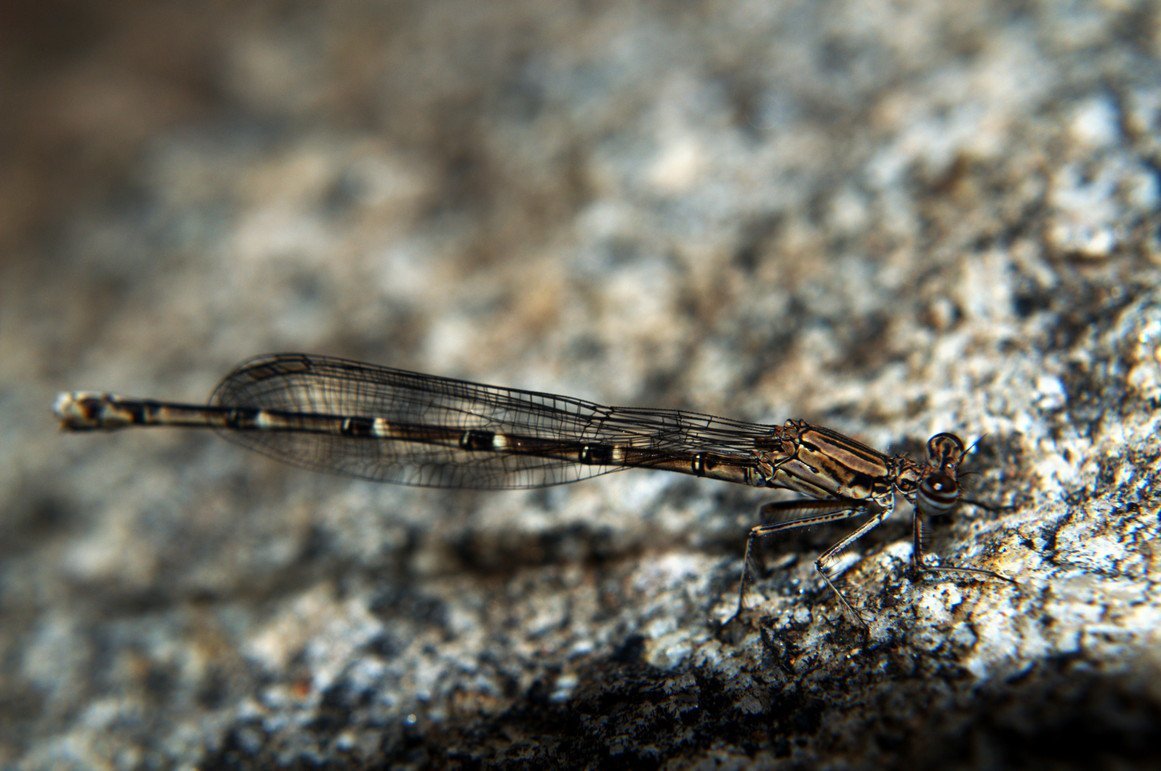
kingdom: Animalia
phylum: Arthropoda
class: Insecta
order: Odonata
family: Platycnemididae
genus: Disparoneura
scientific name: Disparoneura quadrimaculata
